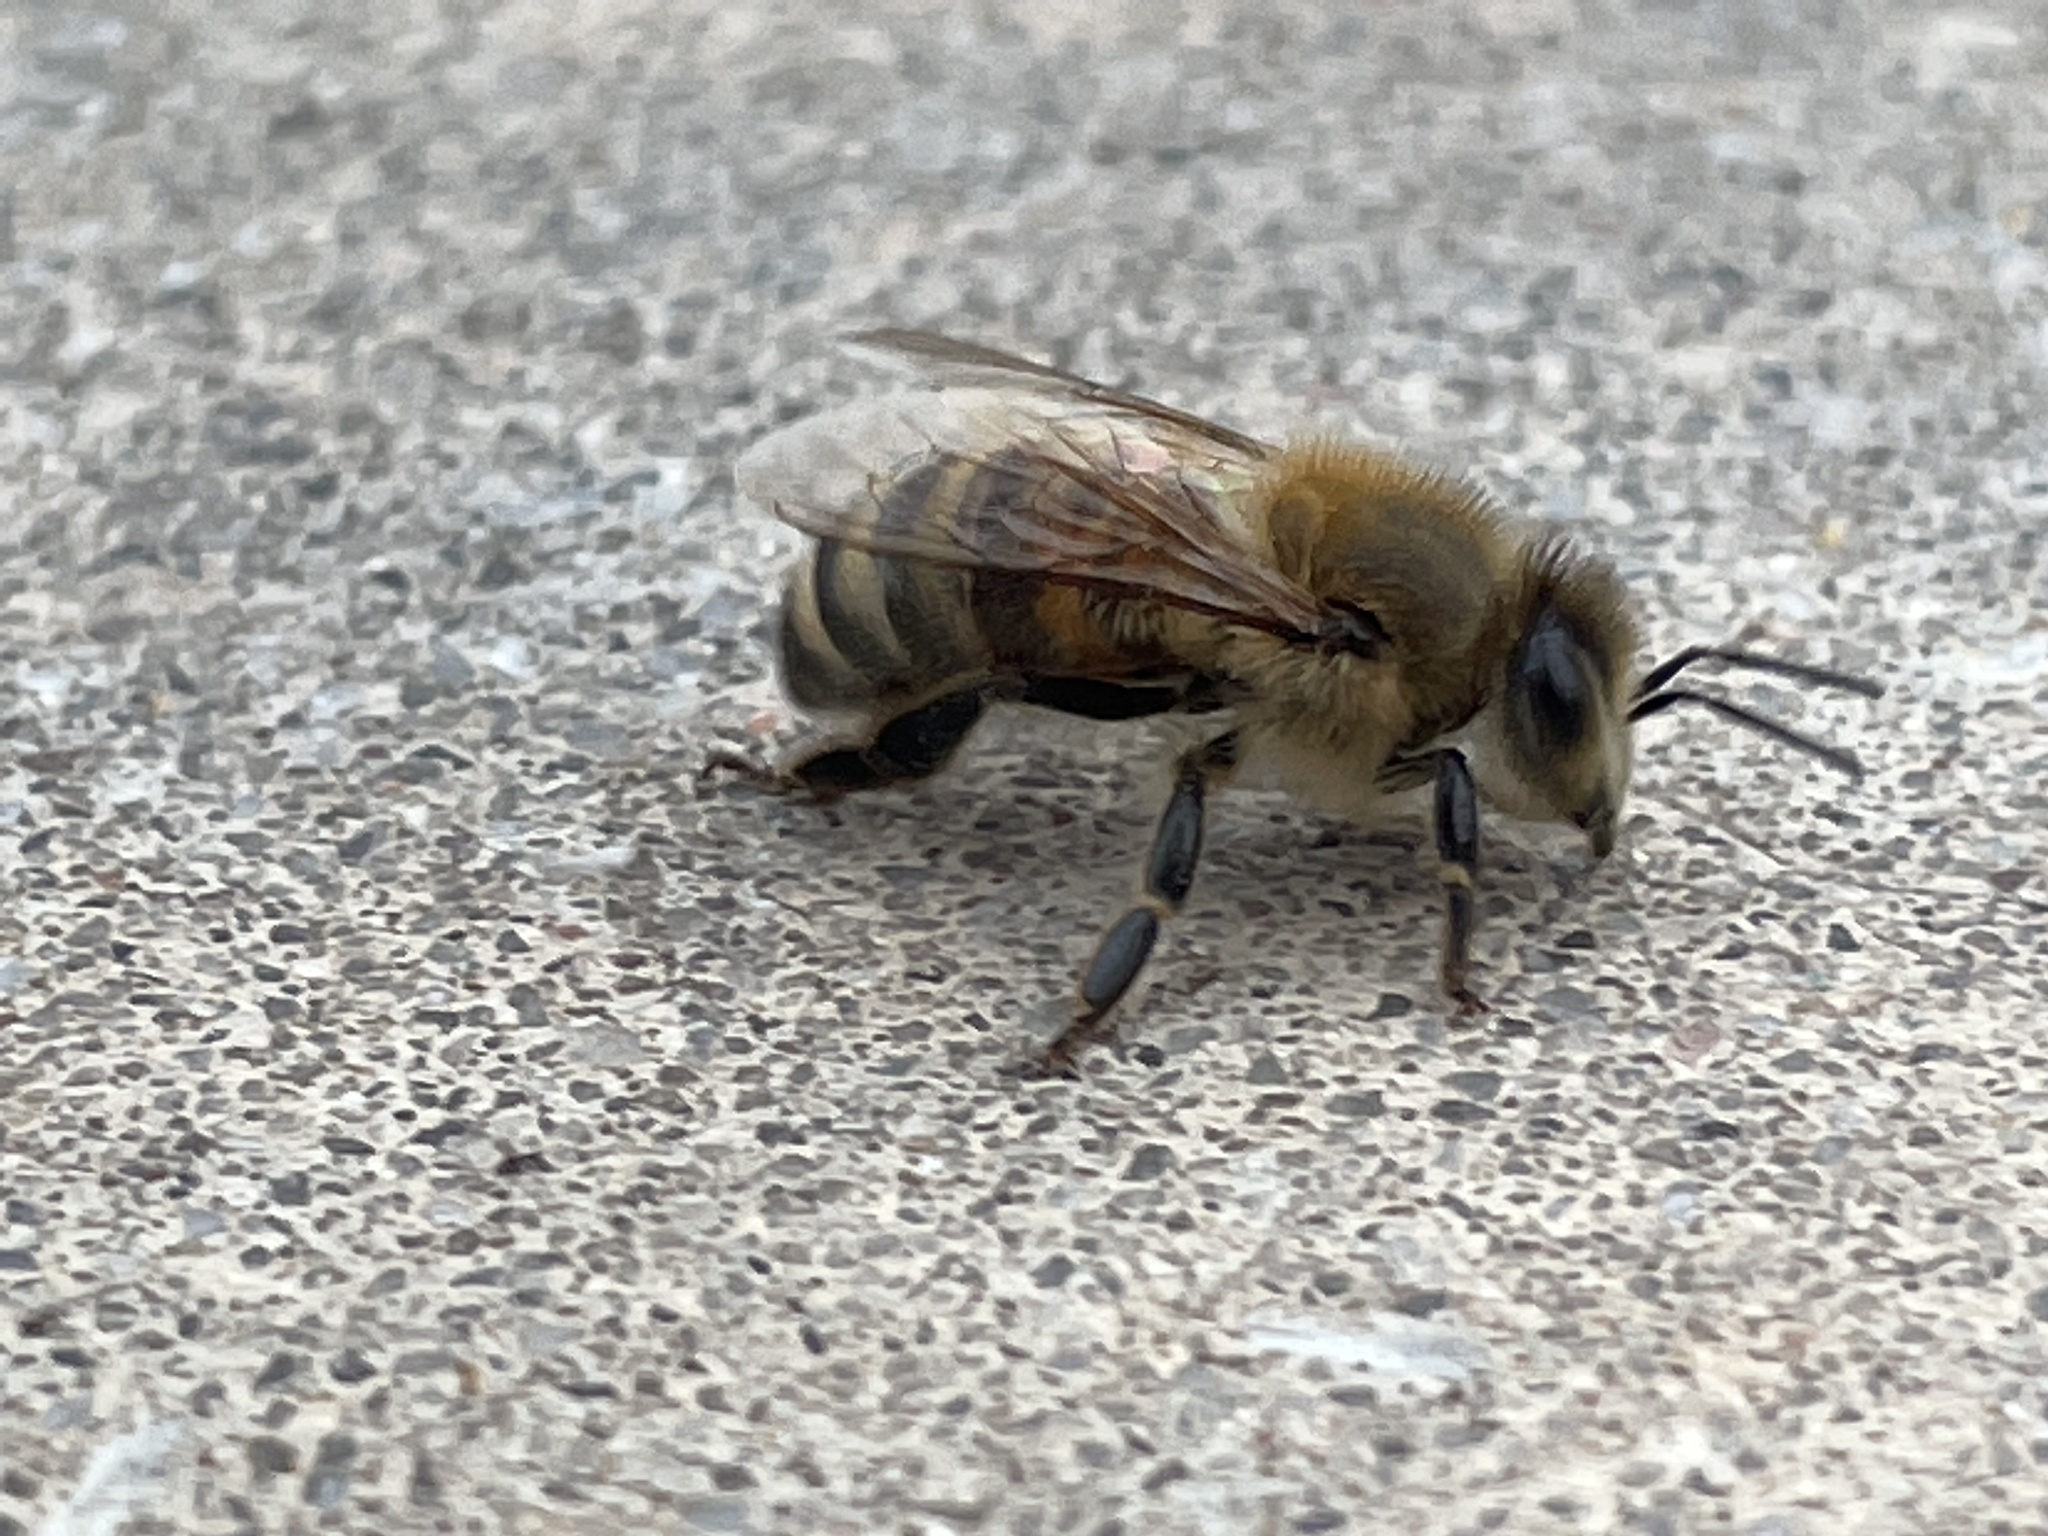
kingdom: Animalia
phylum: Arthropoda
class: Insecta
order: Hymenoptera
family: Apidae
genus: Apis
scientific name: Apis mellifera
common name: Honey bee
